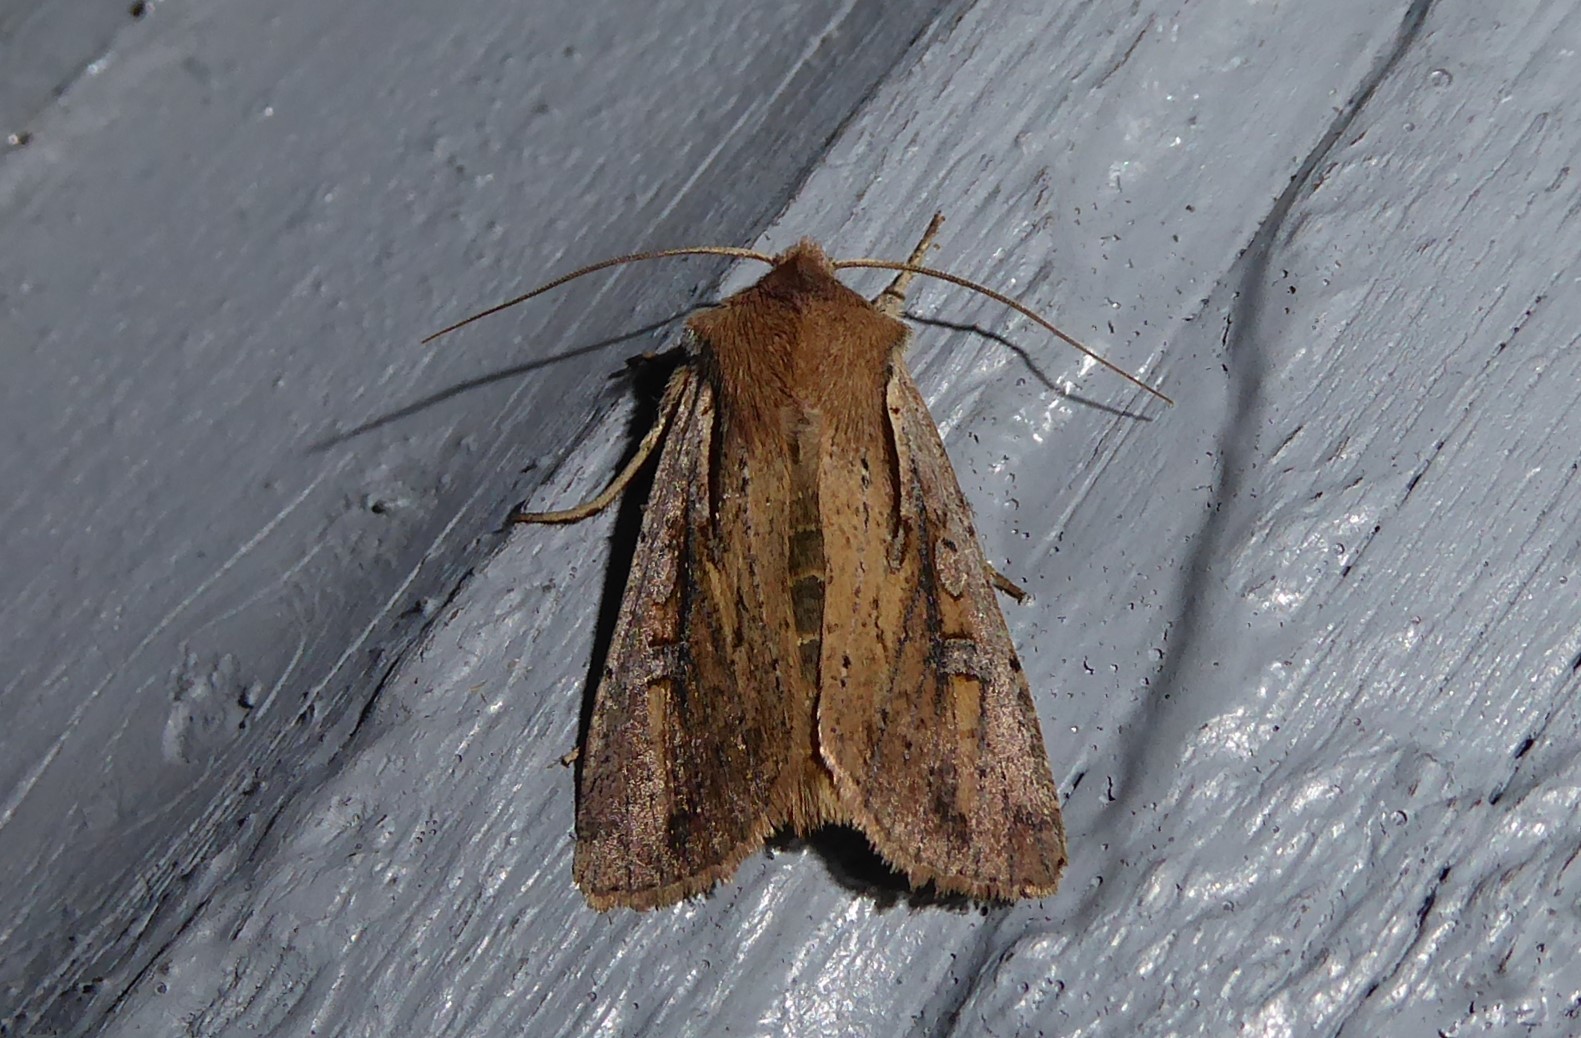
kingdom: Animalia
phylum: Arthropoda
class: Insecta
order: Lepidoptera
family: Noctuidae
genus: Ichneutica
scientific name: Ichneutica atristriga
